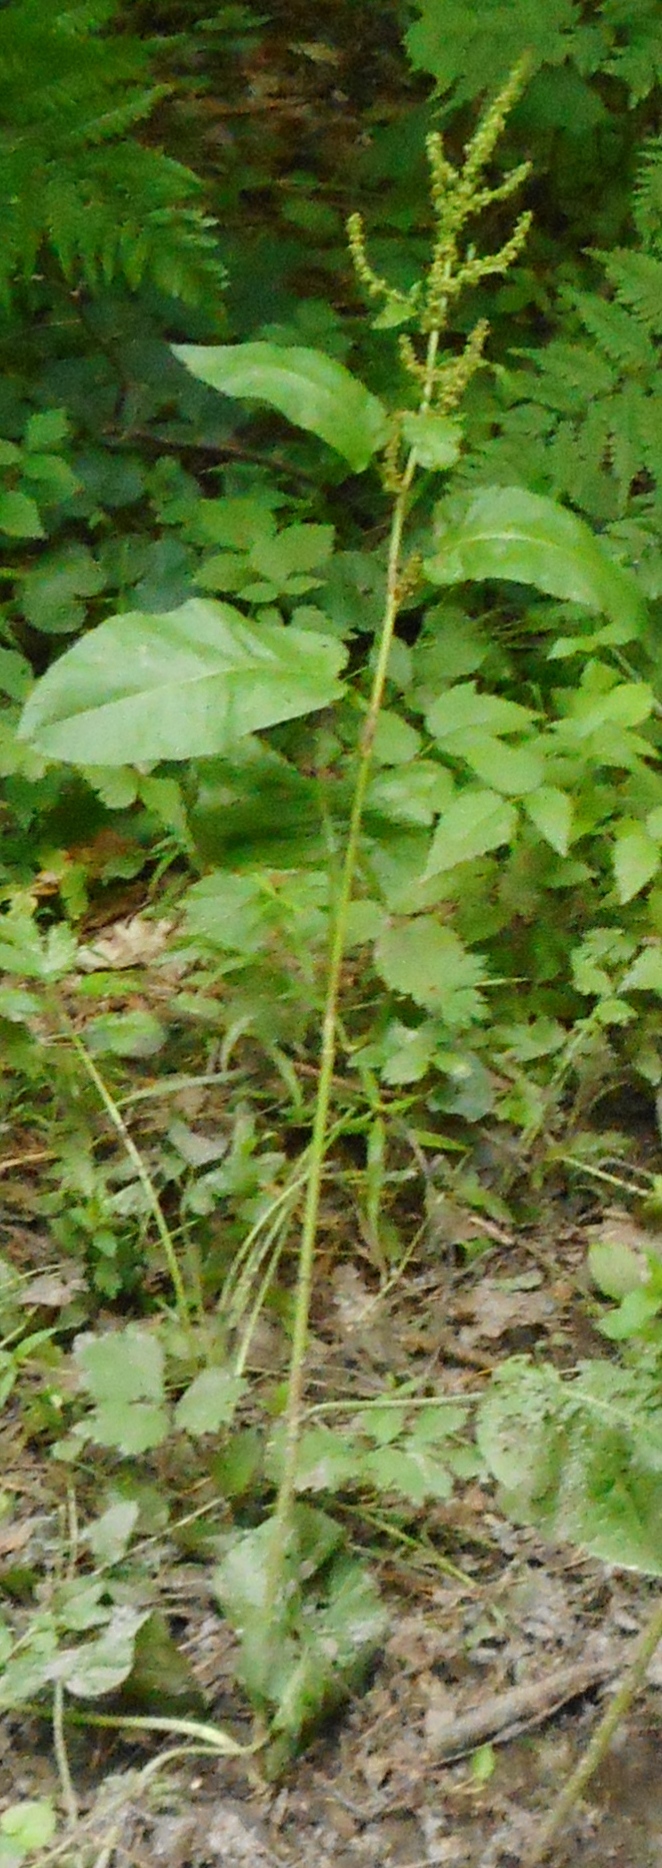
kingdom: Plantae
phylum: Tracheophyta
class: Magnoliopsida
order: Caryophyllales
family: Polygonaceae
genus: Rumex
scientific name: Rumex obtusifolius
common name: Bitter dock
